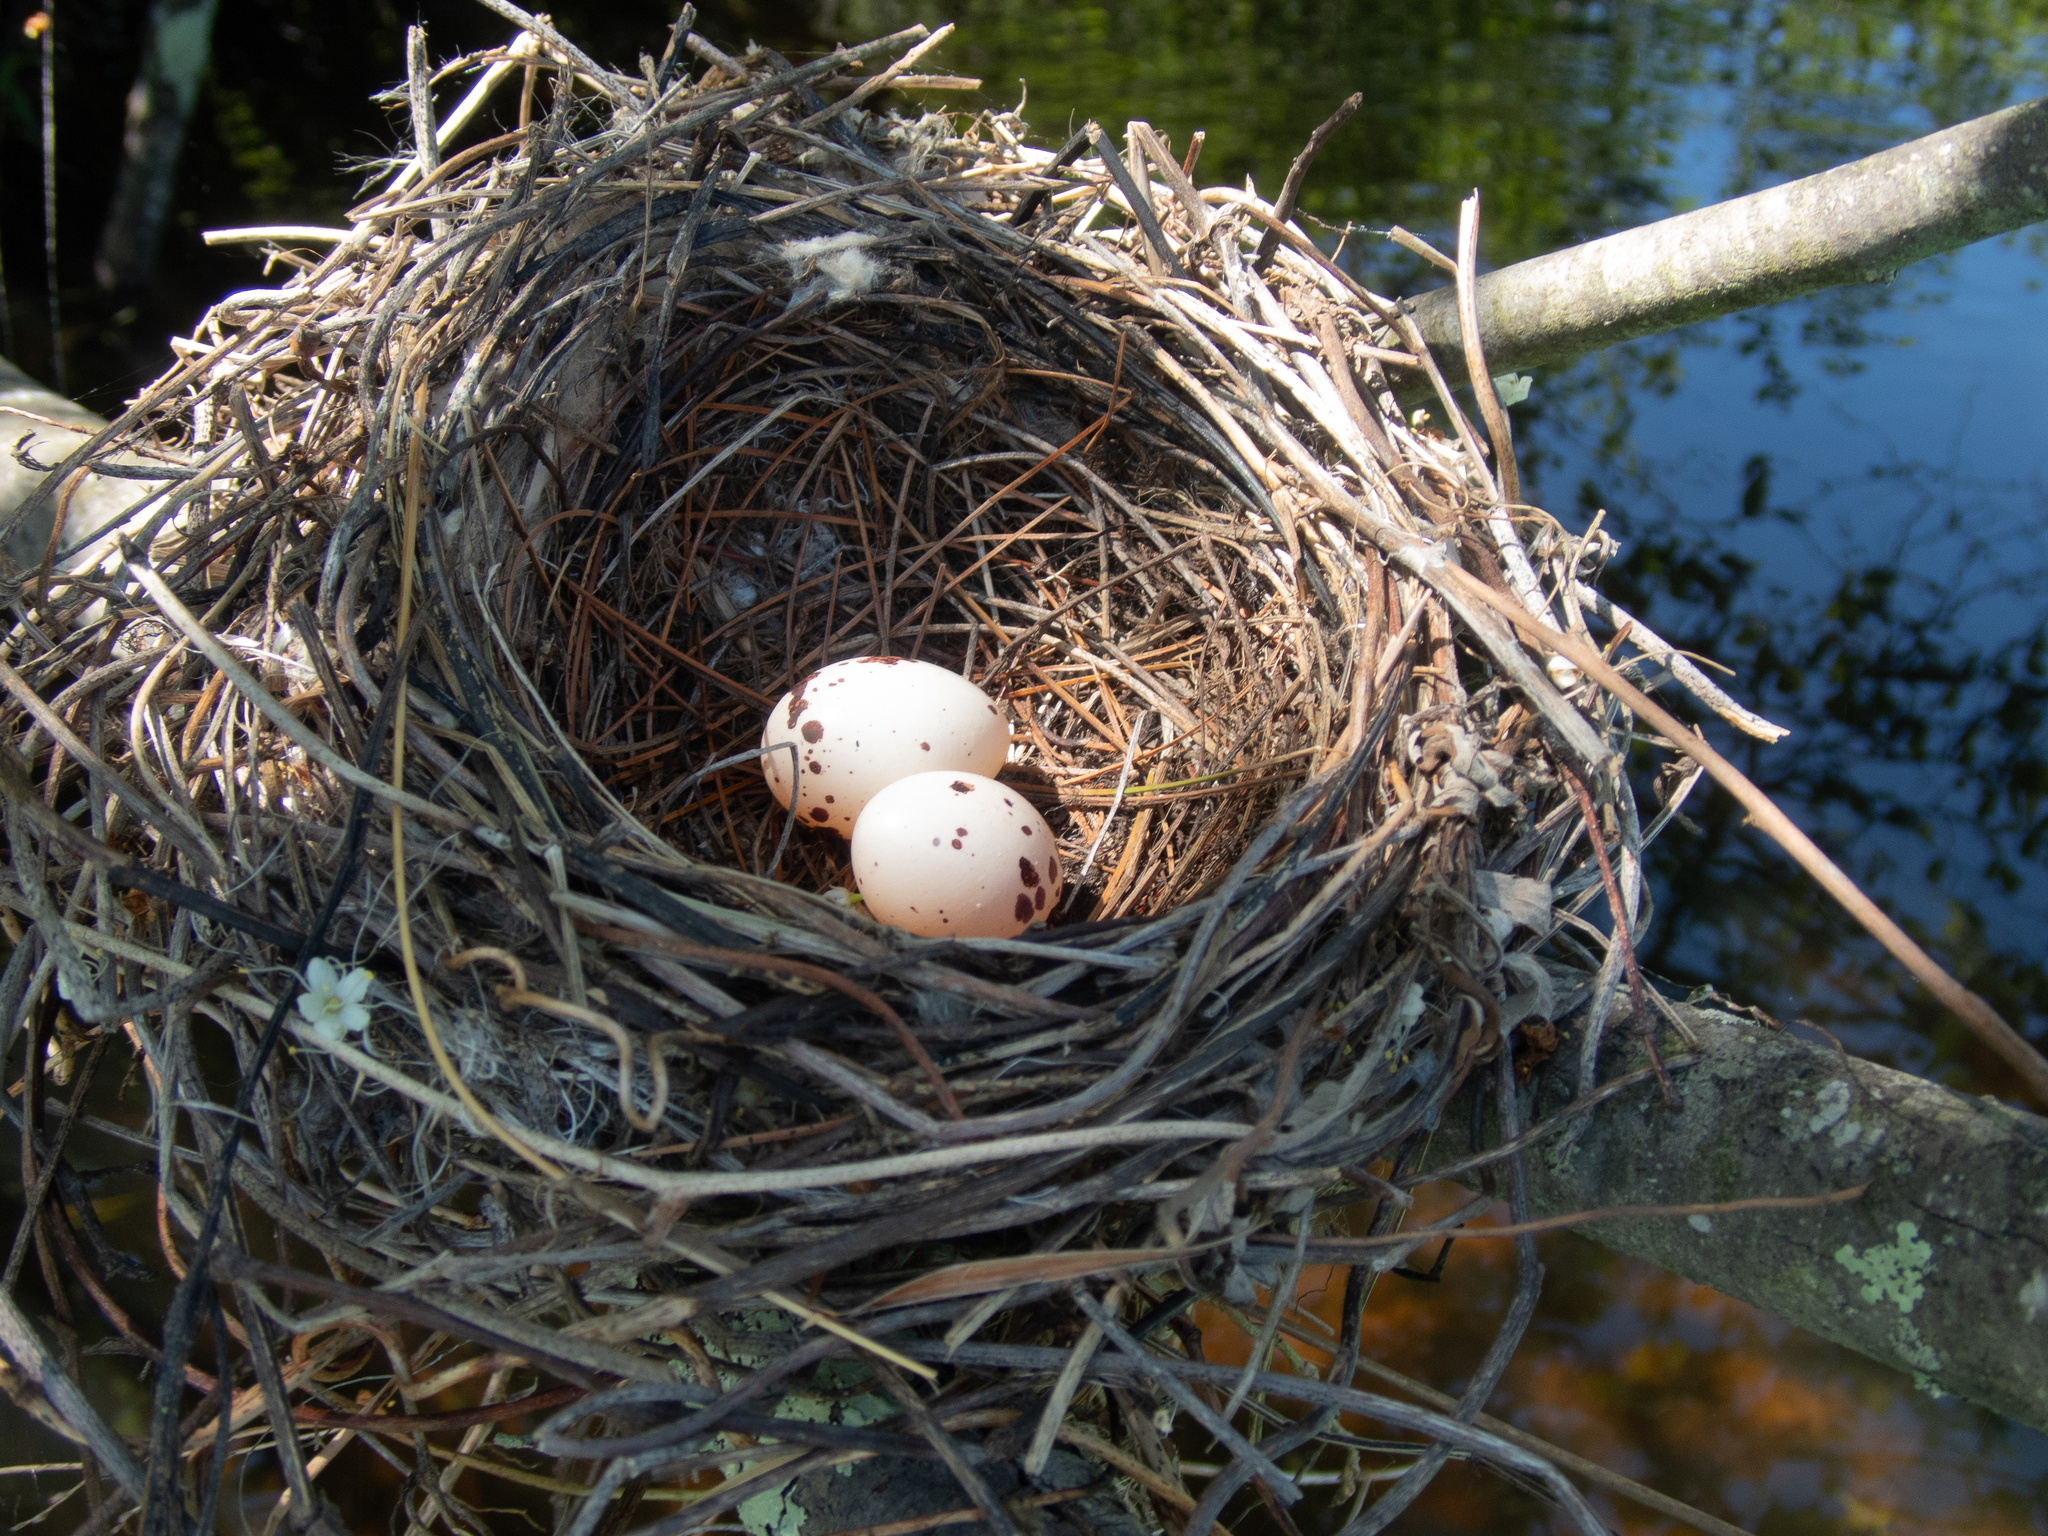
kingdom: Animalia
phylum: Chordata
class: Aves
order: Passeriformes
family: Tyrannidae
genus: Tyrannus
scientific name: Tyrannus tyrannus
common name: Eastern kingbird
